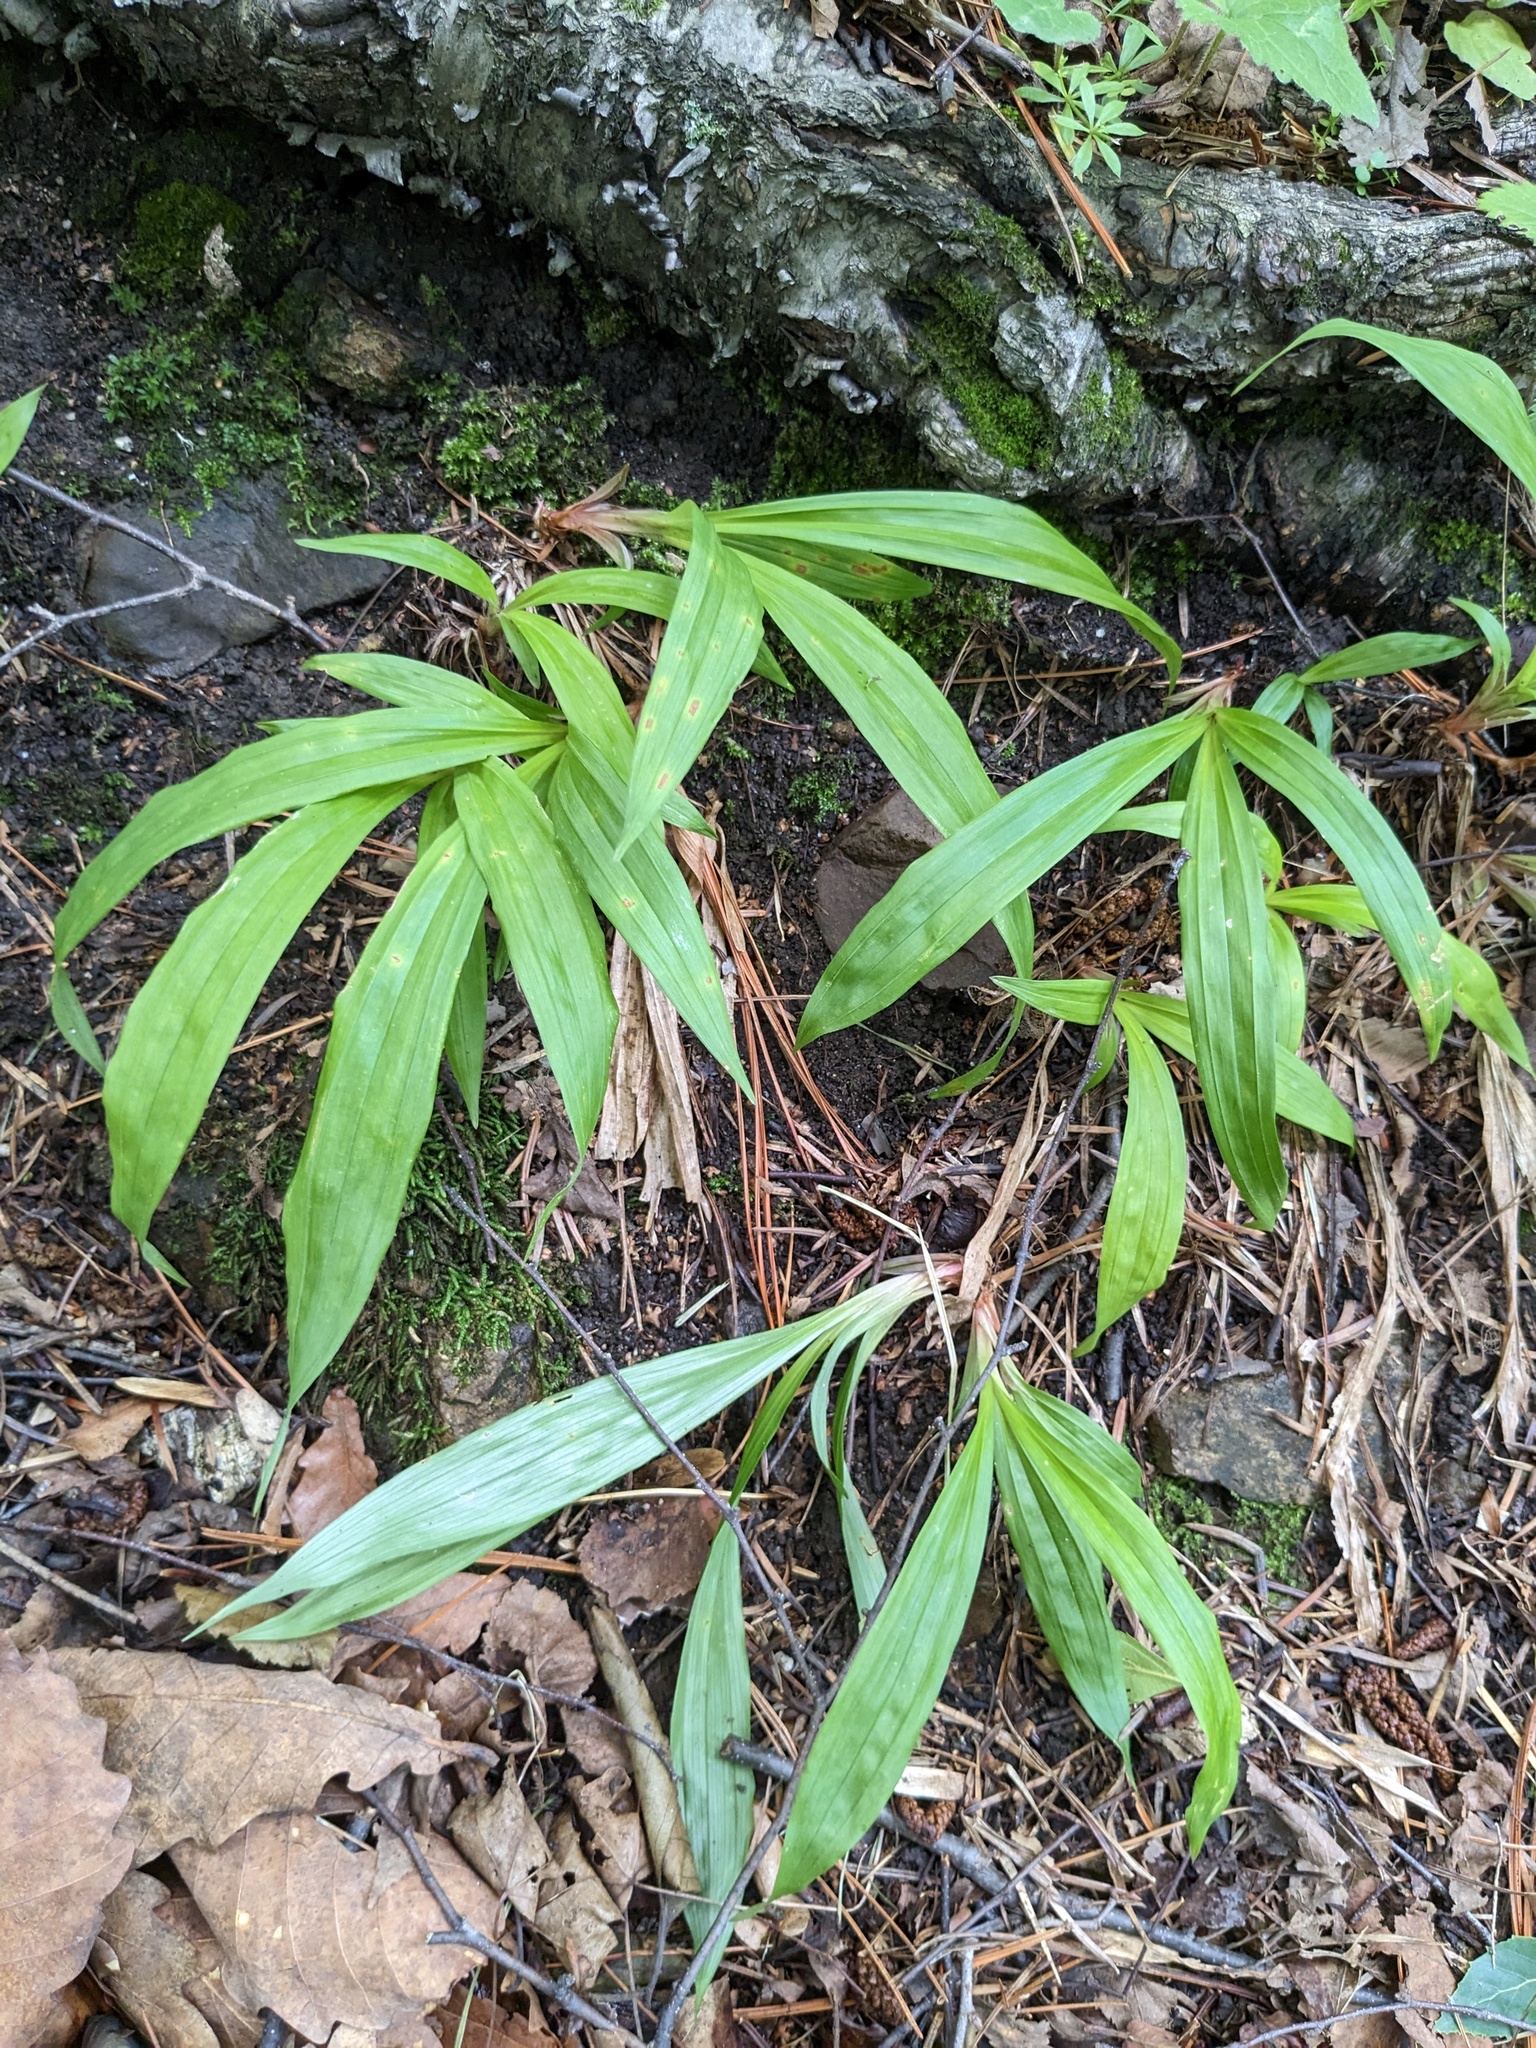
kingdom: Plantae
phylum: Tracheophyta
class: Liliopsida
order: Poales
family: Cyperaceae
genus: Carex
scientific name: Carex siderosticta
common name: Broadleaf sedge
